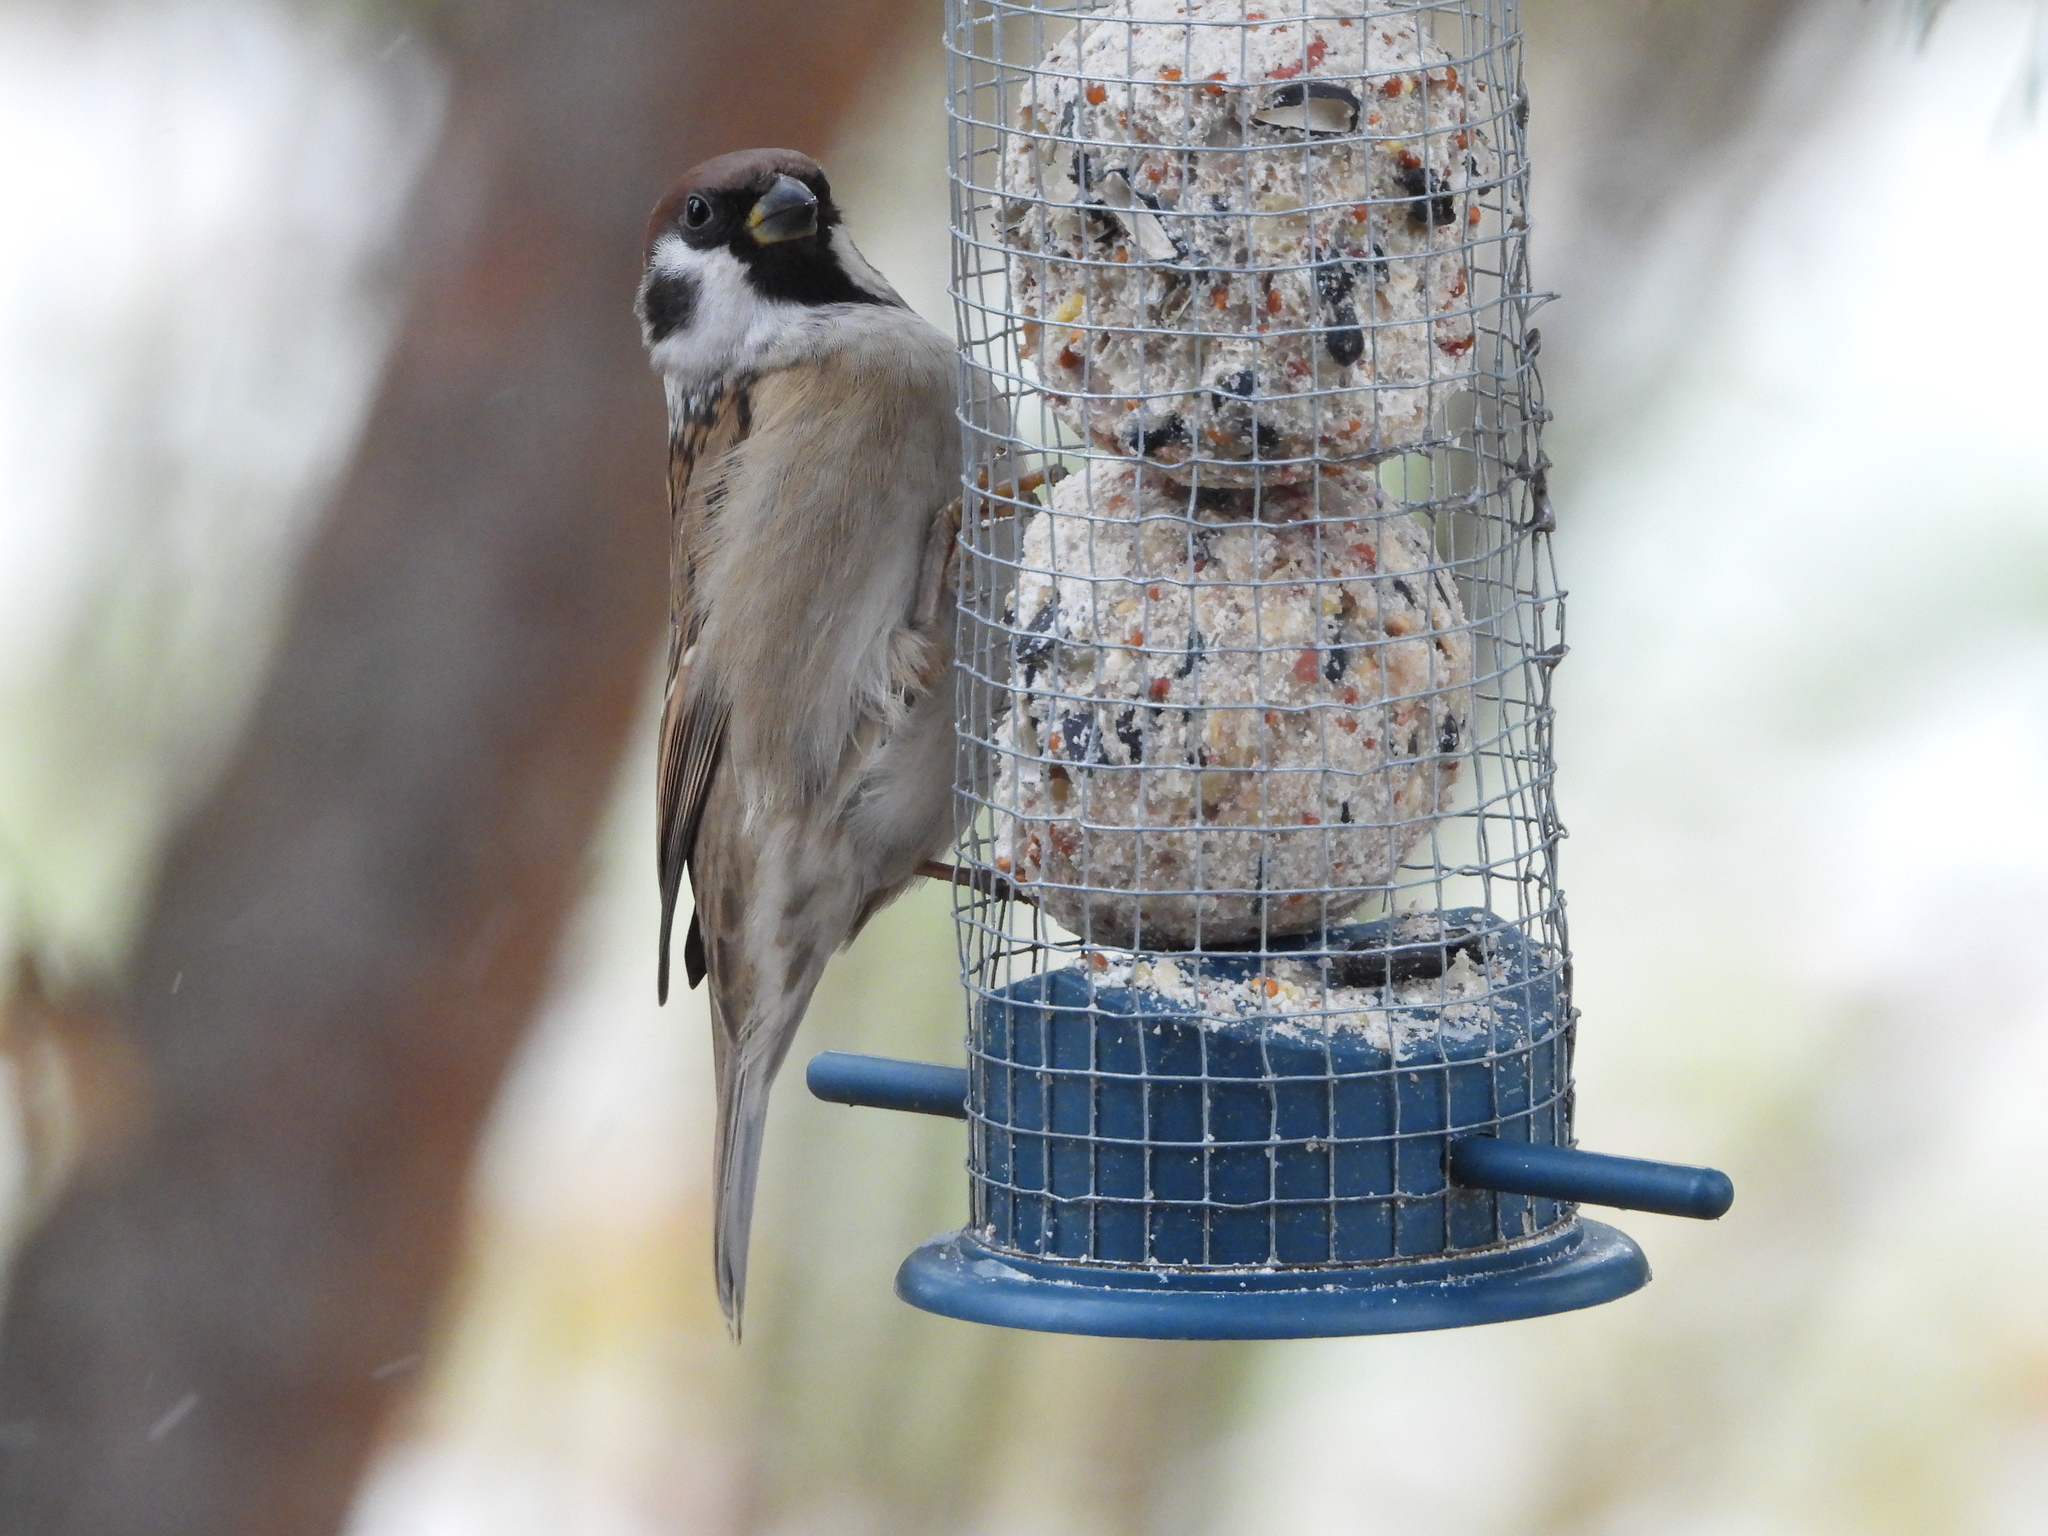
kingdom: Animalia
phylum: Chordata
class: Aves
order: Passeriformes
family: Passeridae
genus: Passer
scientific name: Passer montanus
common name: Eurasian tree sparrow
